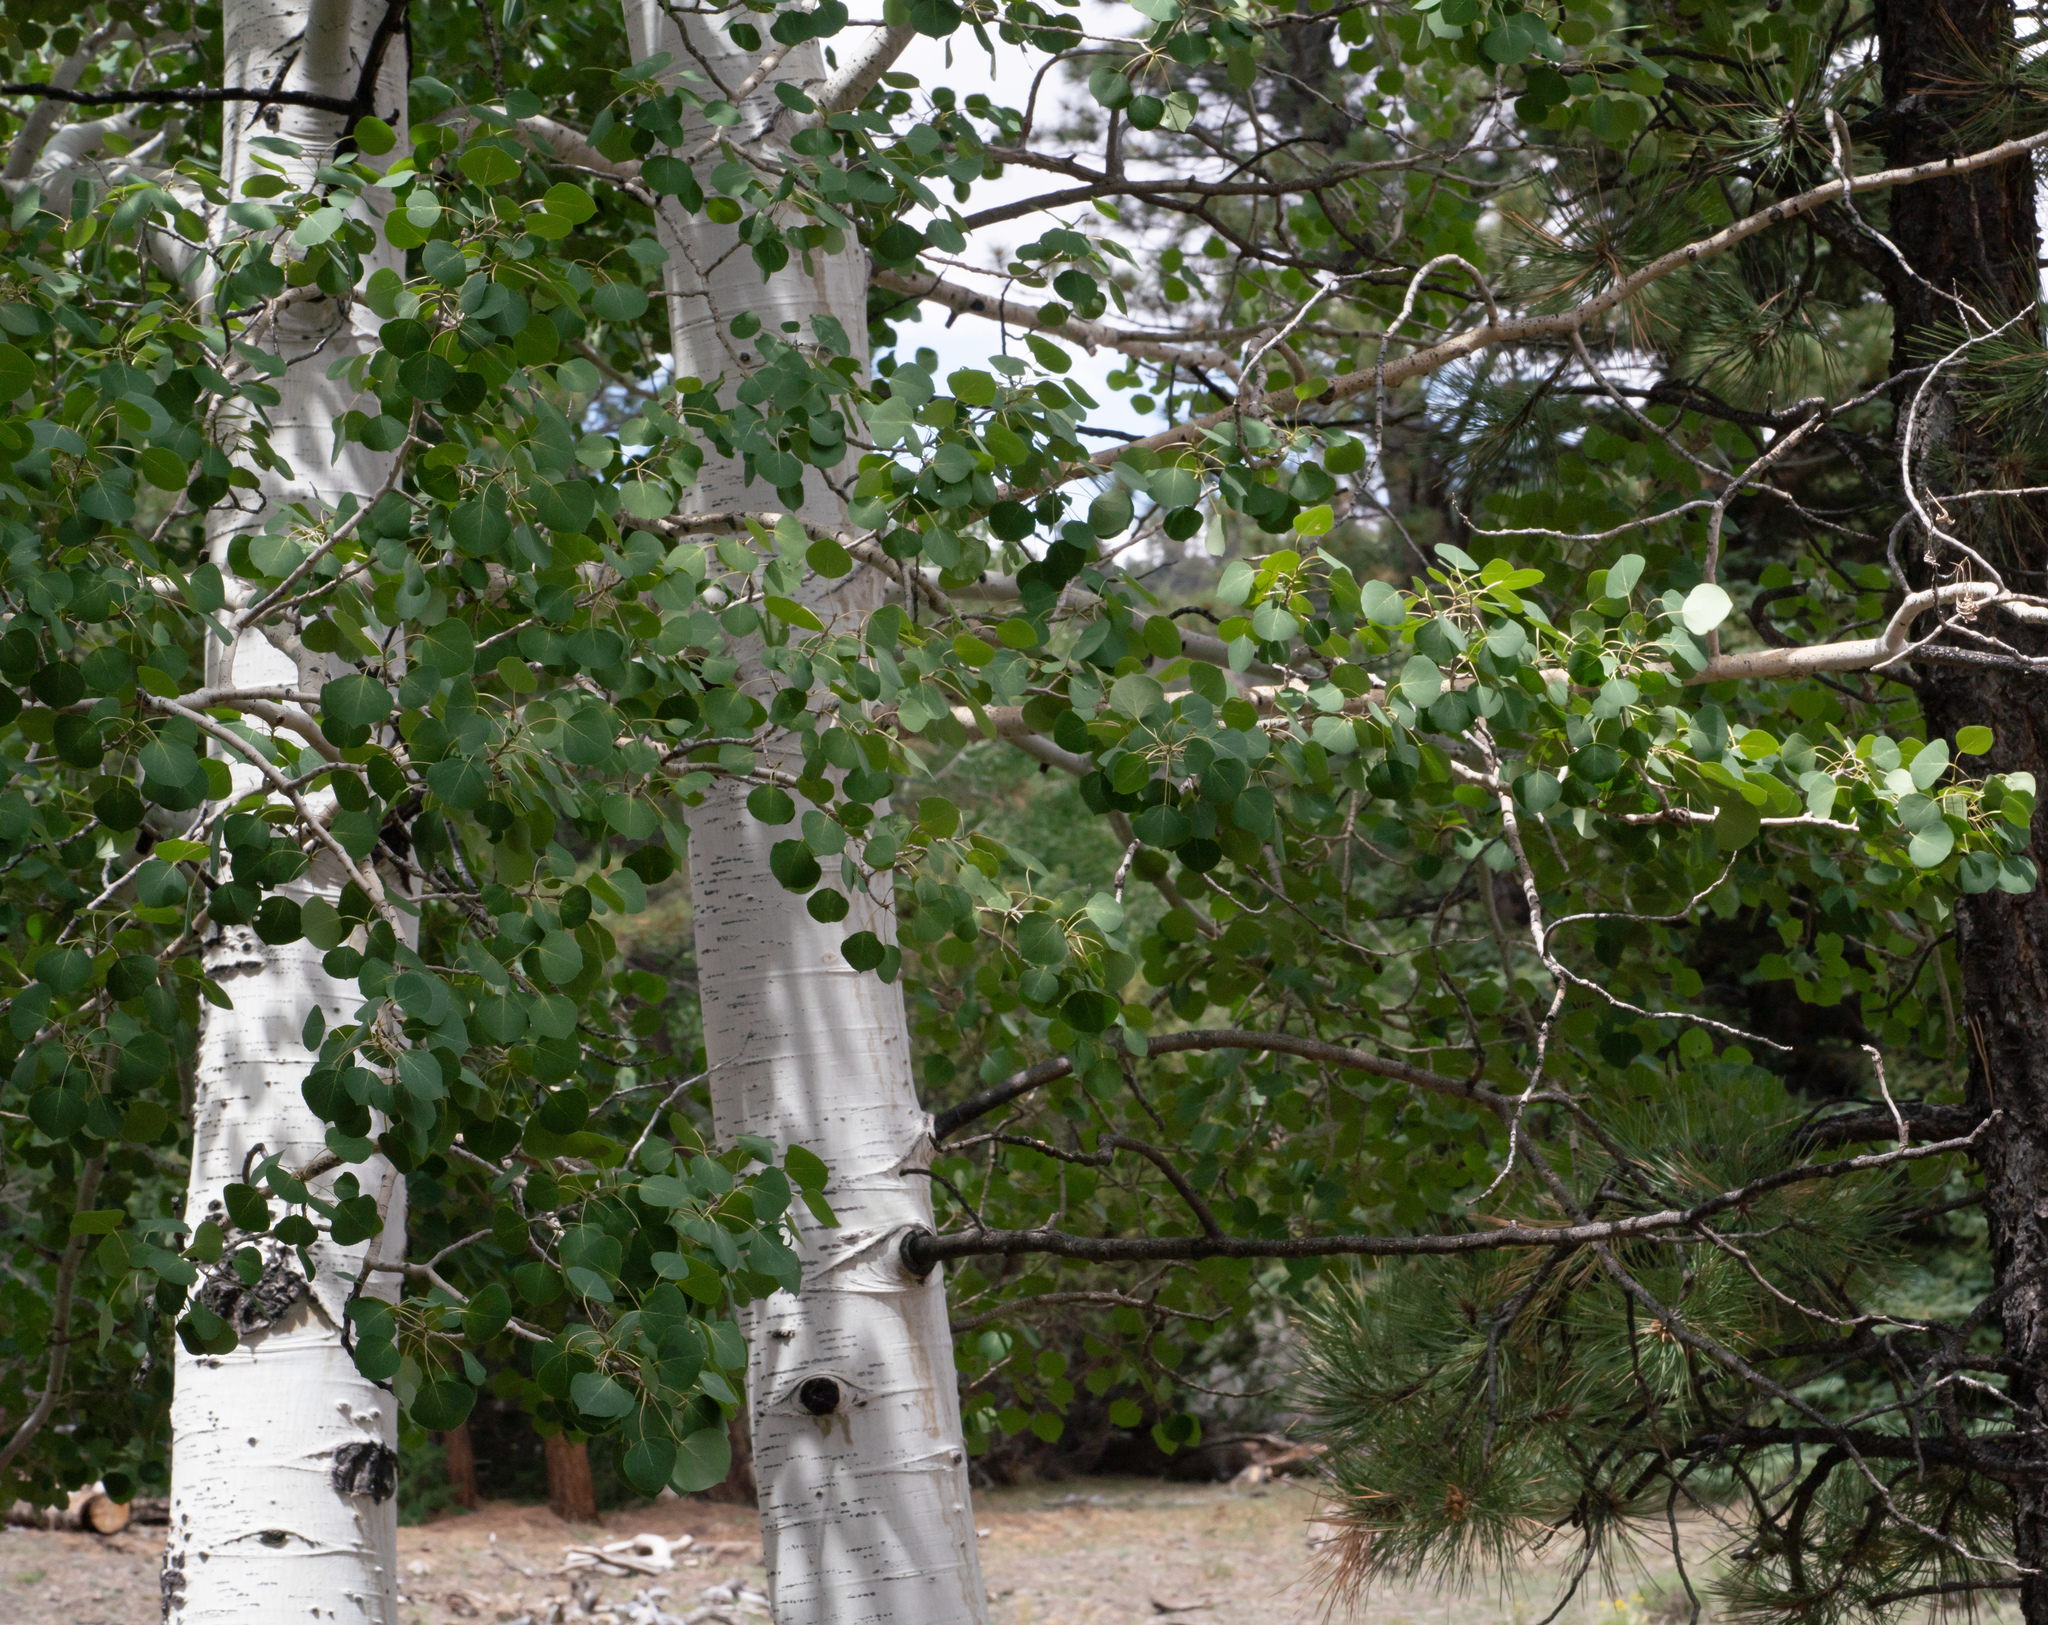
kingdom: Plantae
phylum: Tracheophyta
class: Magnoliopsida
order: Malpighiales
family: Salicaceae
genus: Populus
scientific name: Populus tremuloides
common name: Quaking aspen
